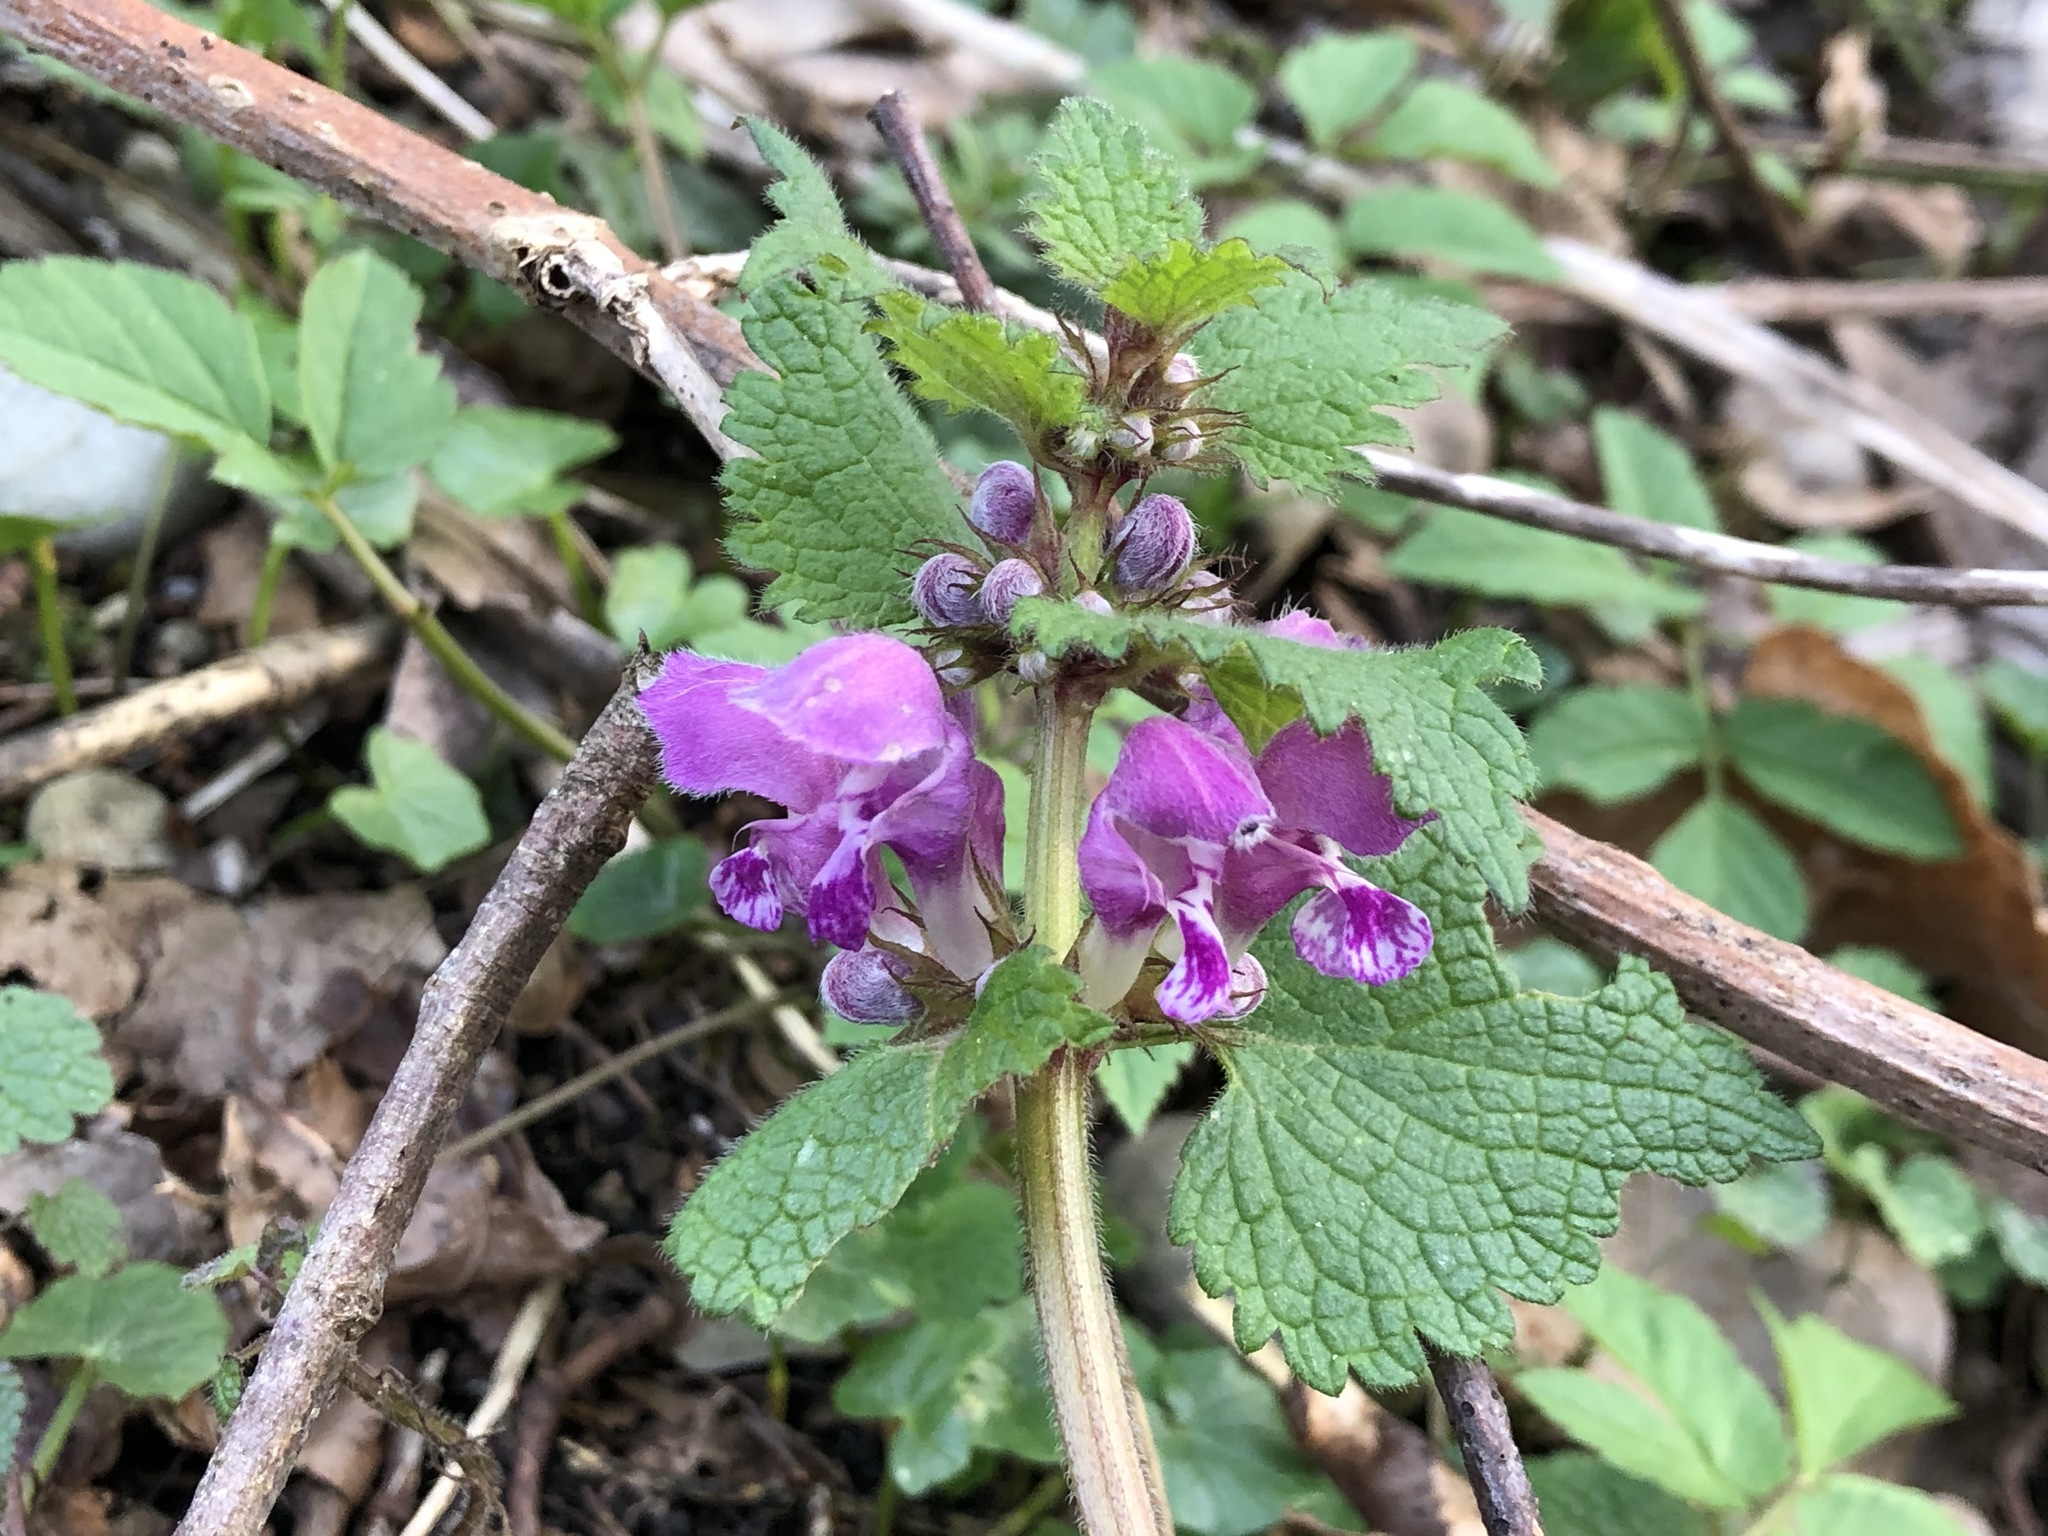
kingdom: Plantae
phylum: Tracheophyta
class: Magnoliopsida
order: Lamiales
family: Lamiaceae
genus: Lamium
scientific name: Lamium maculatum
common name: Spotted dead-nettle
